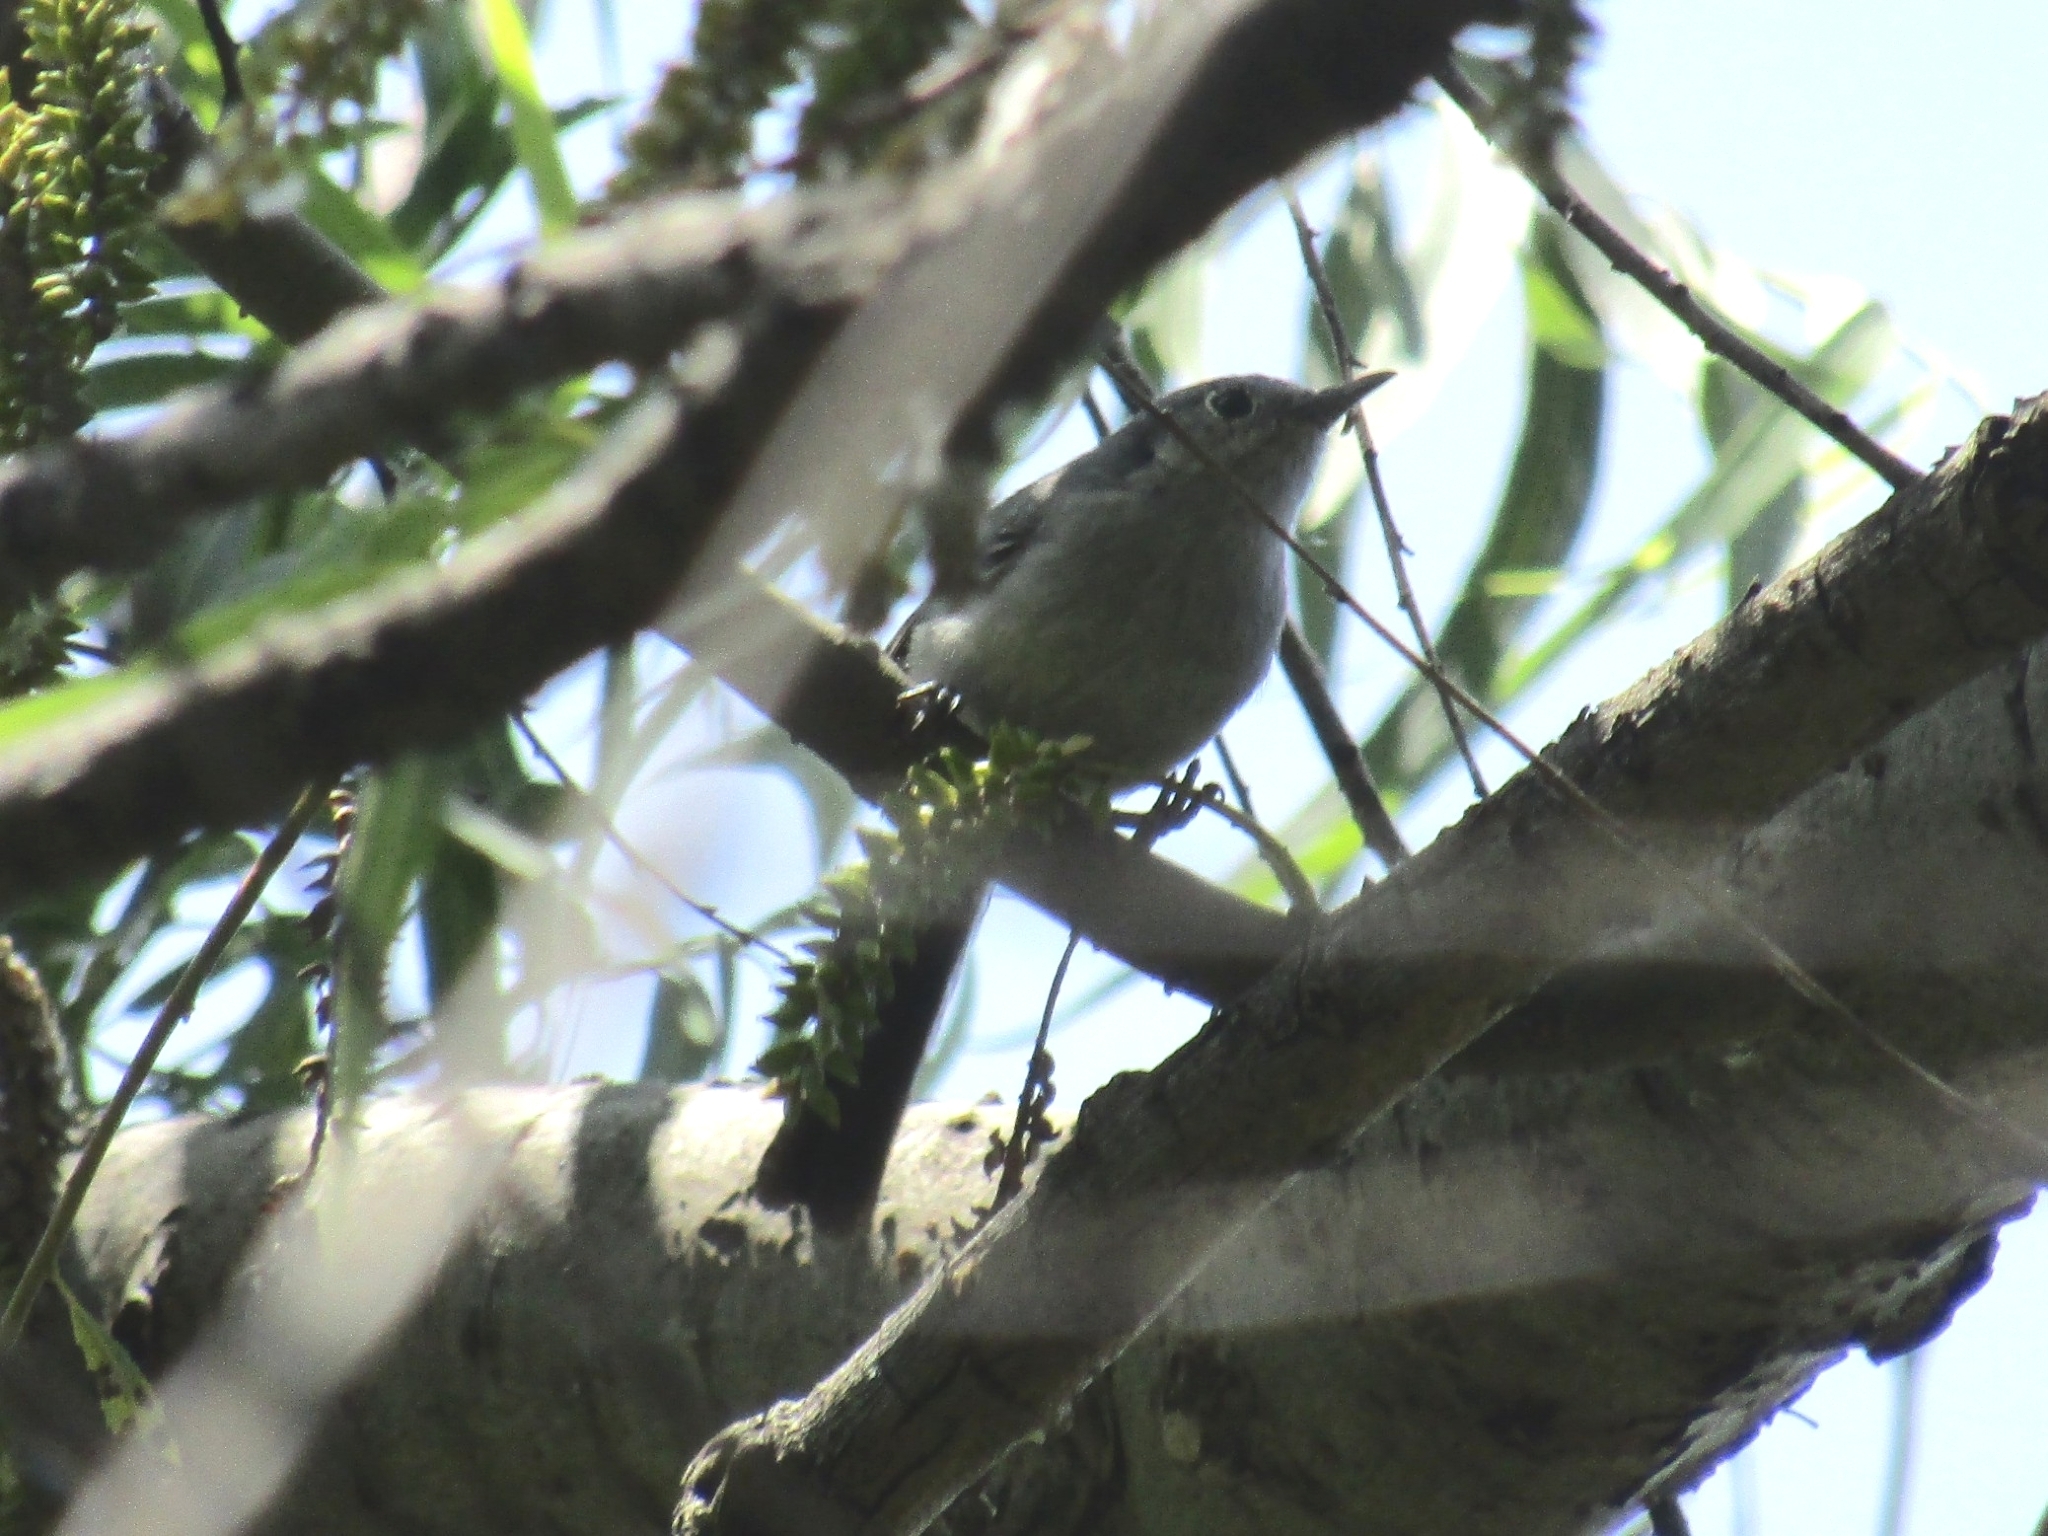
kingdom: Animalia
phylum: Chordata
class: Aves
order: Passeriformes
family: Polioptilidae
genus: Polioptila
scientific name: Polioptila dumicola
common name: Masked gnatcatcher
